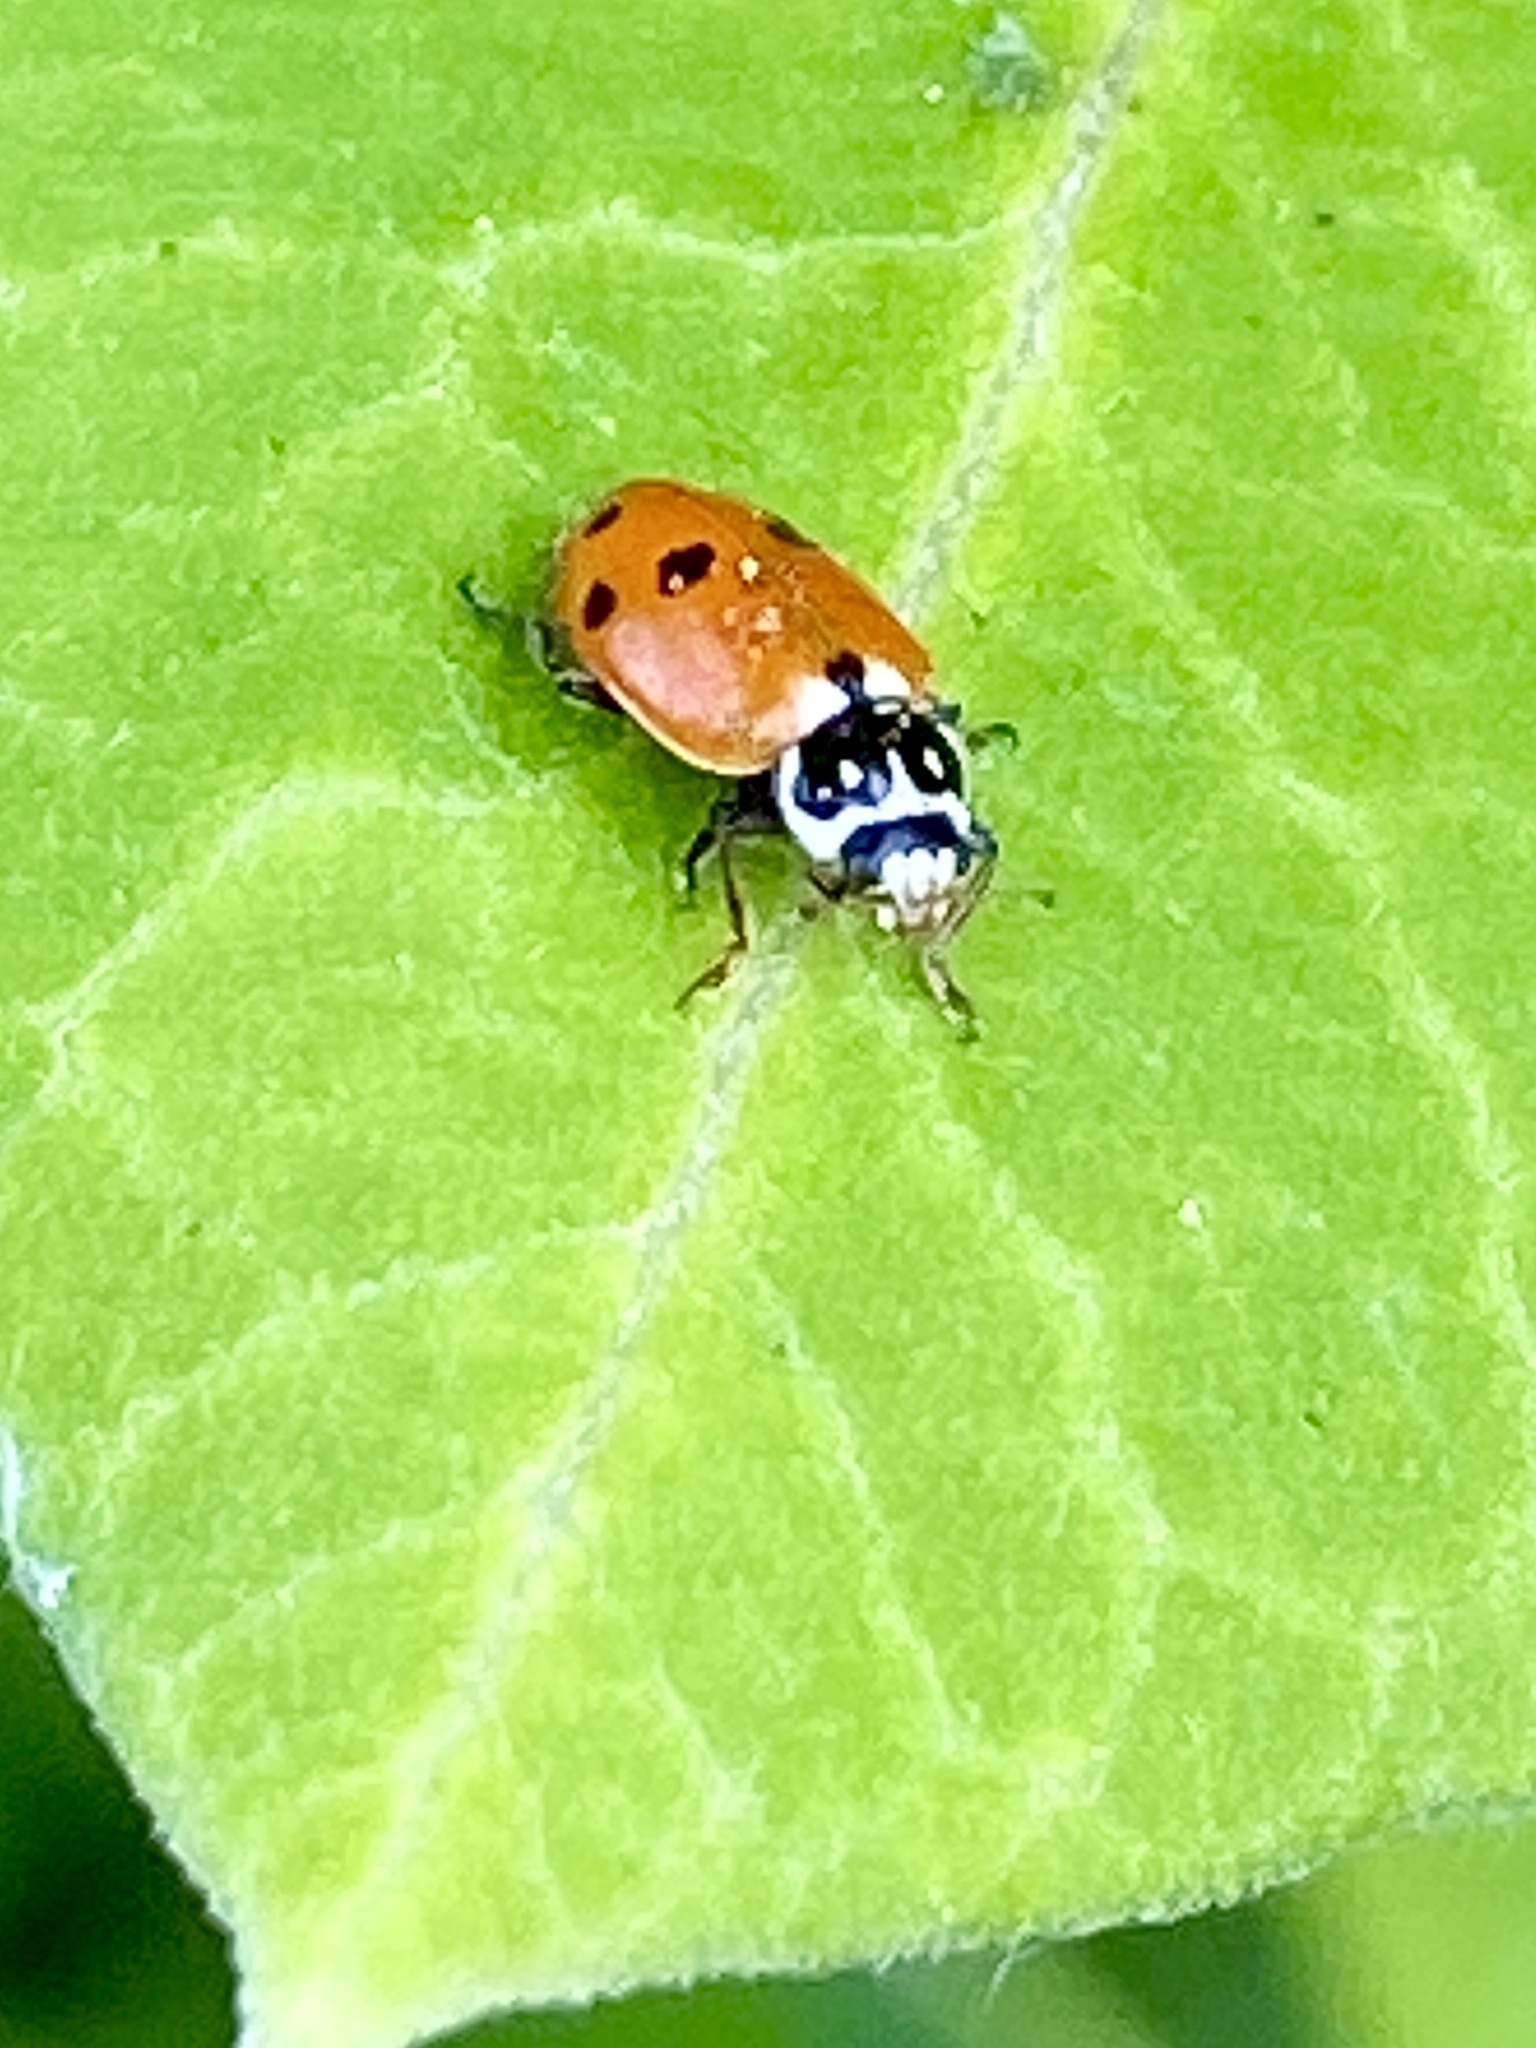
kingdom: Animalia
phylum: Arthropoda
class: Insecta
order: Coleoptera
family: Coccinellidae
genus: Hippodamia
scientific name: Hippodamia variegata
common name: Ladybird beetle
